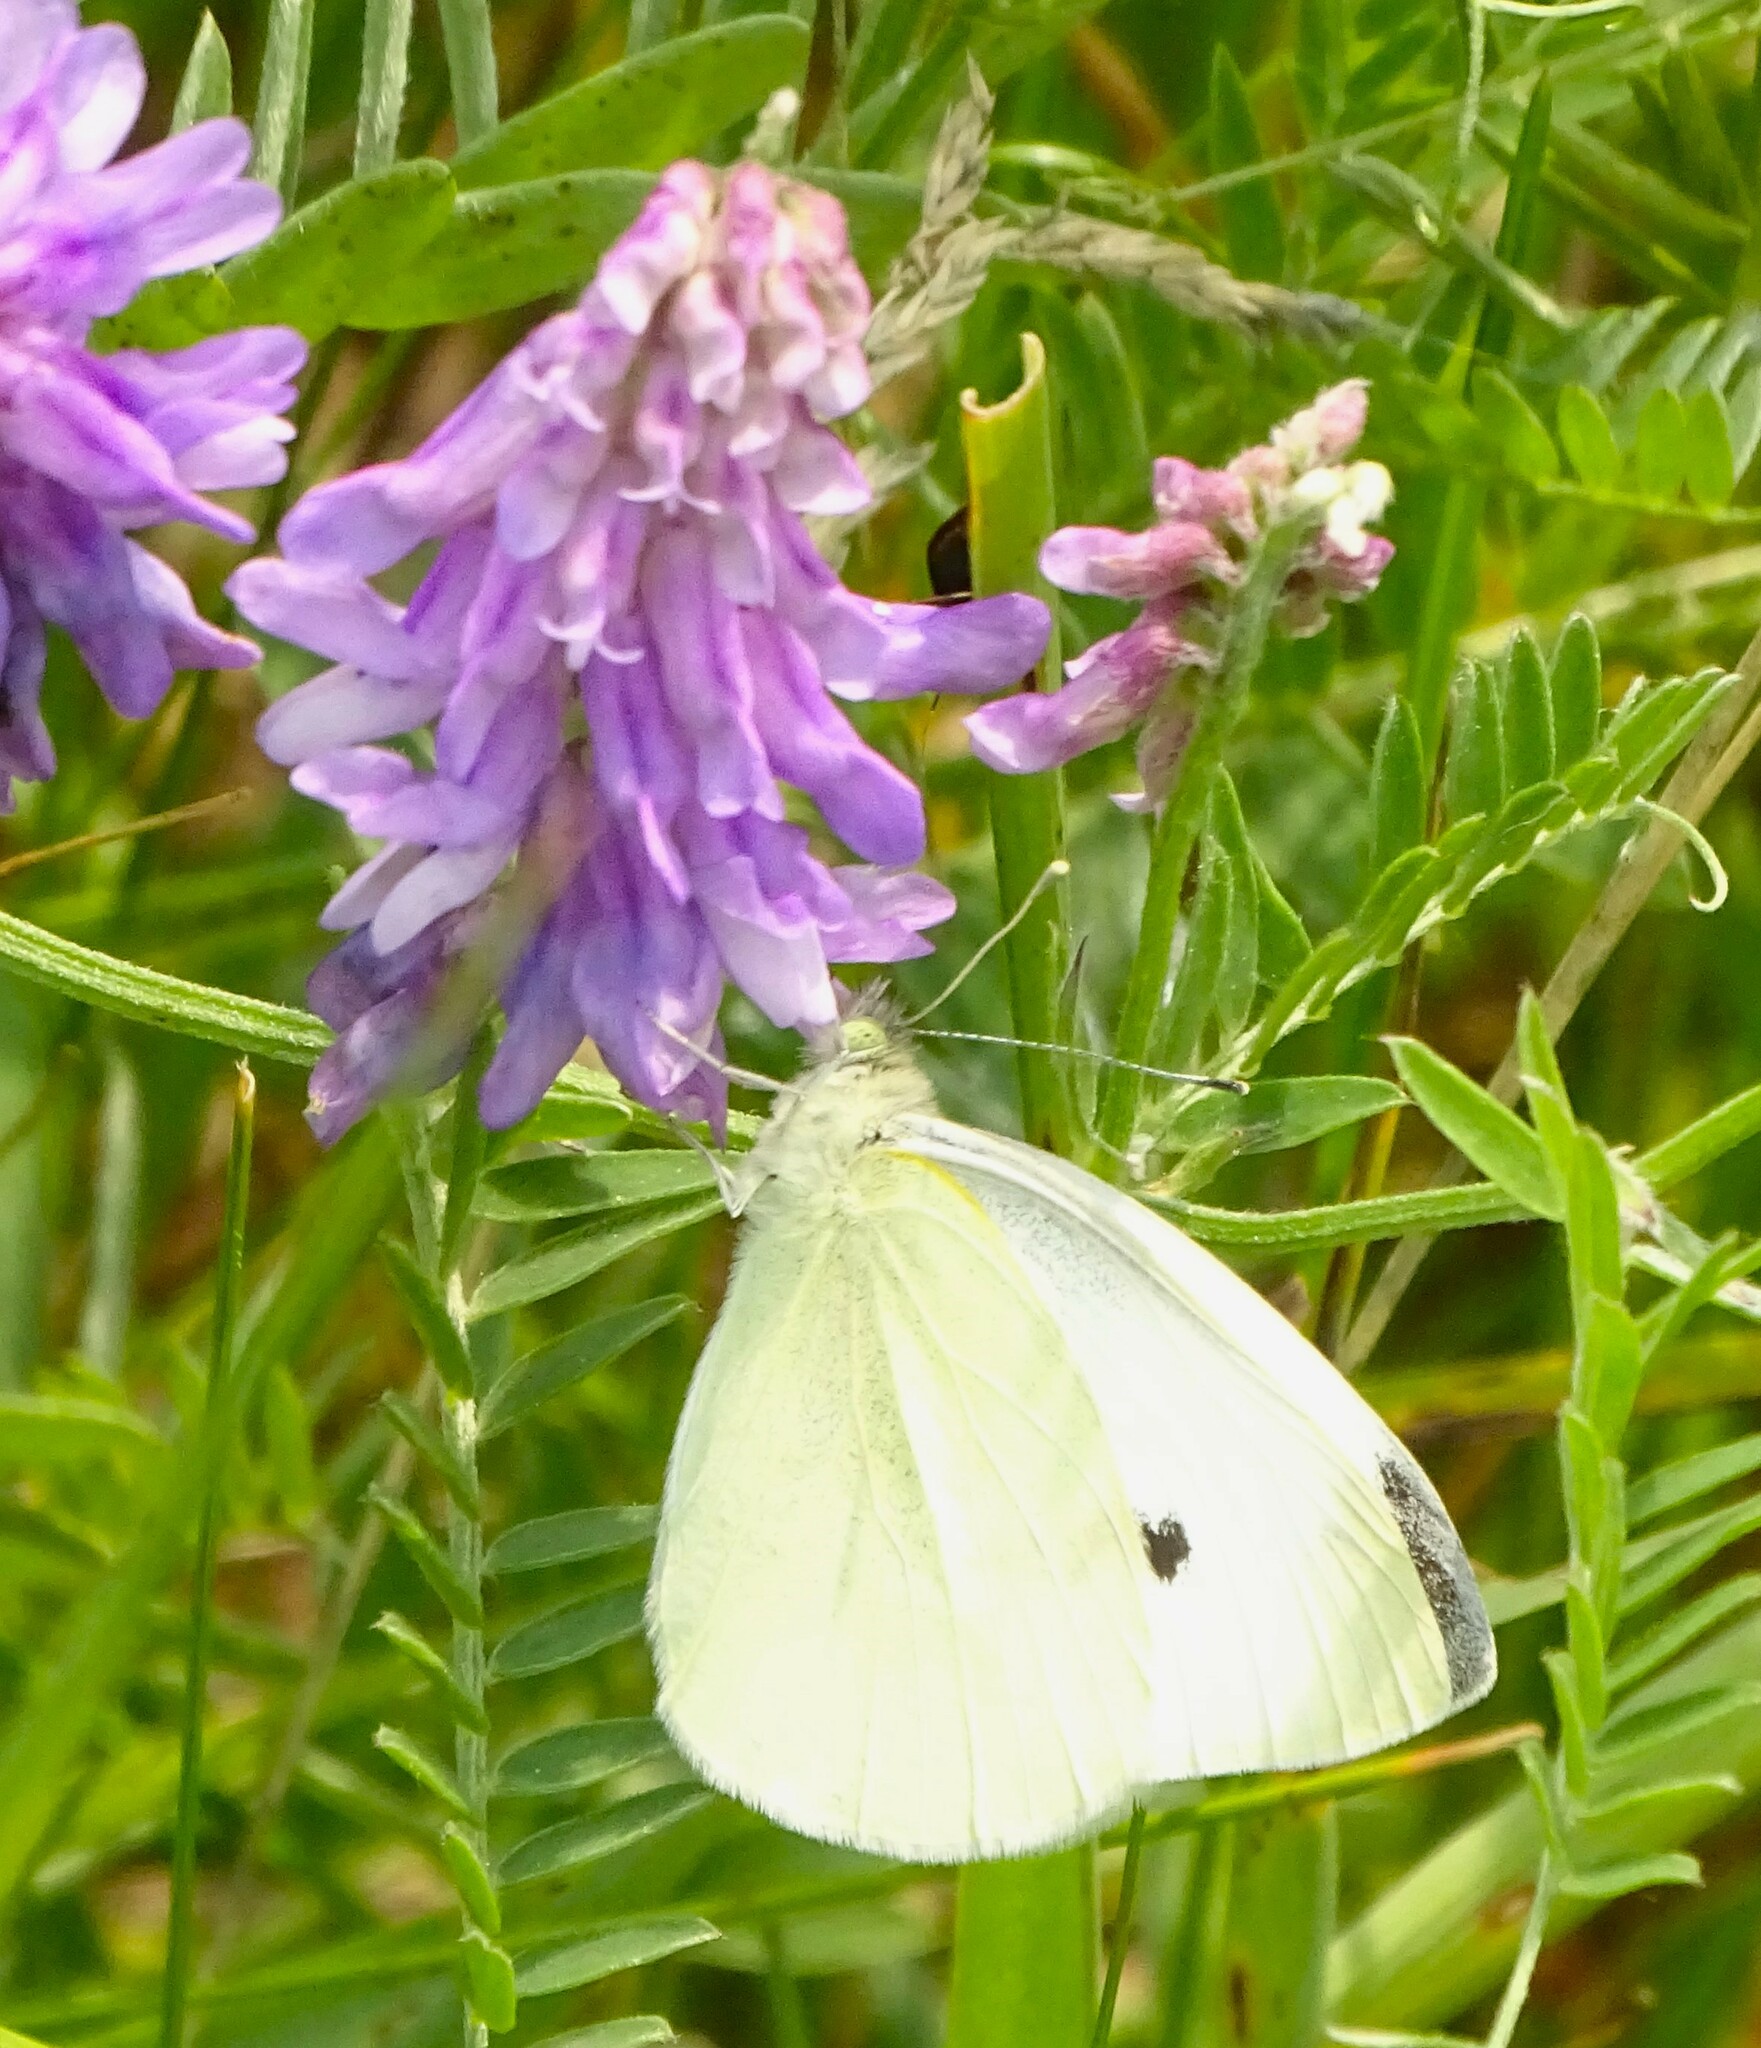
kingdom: Animalia
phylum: Arthropoda
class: Insecta
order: Lepidoptera
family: Pieridae
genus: Pieris
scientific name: Pieris rapae
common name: Small white
